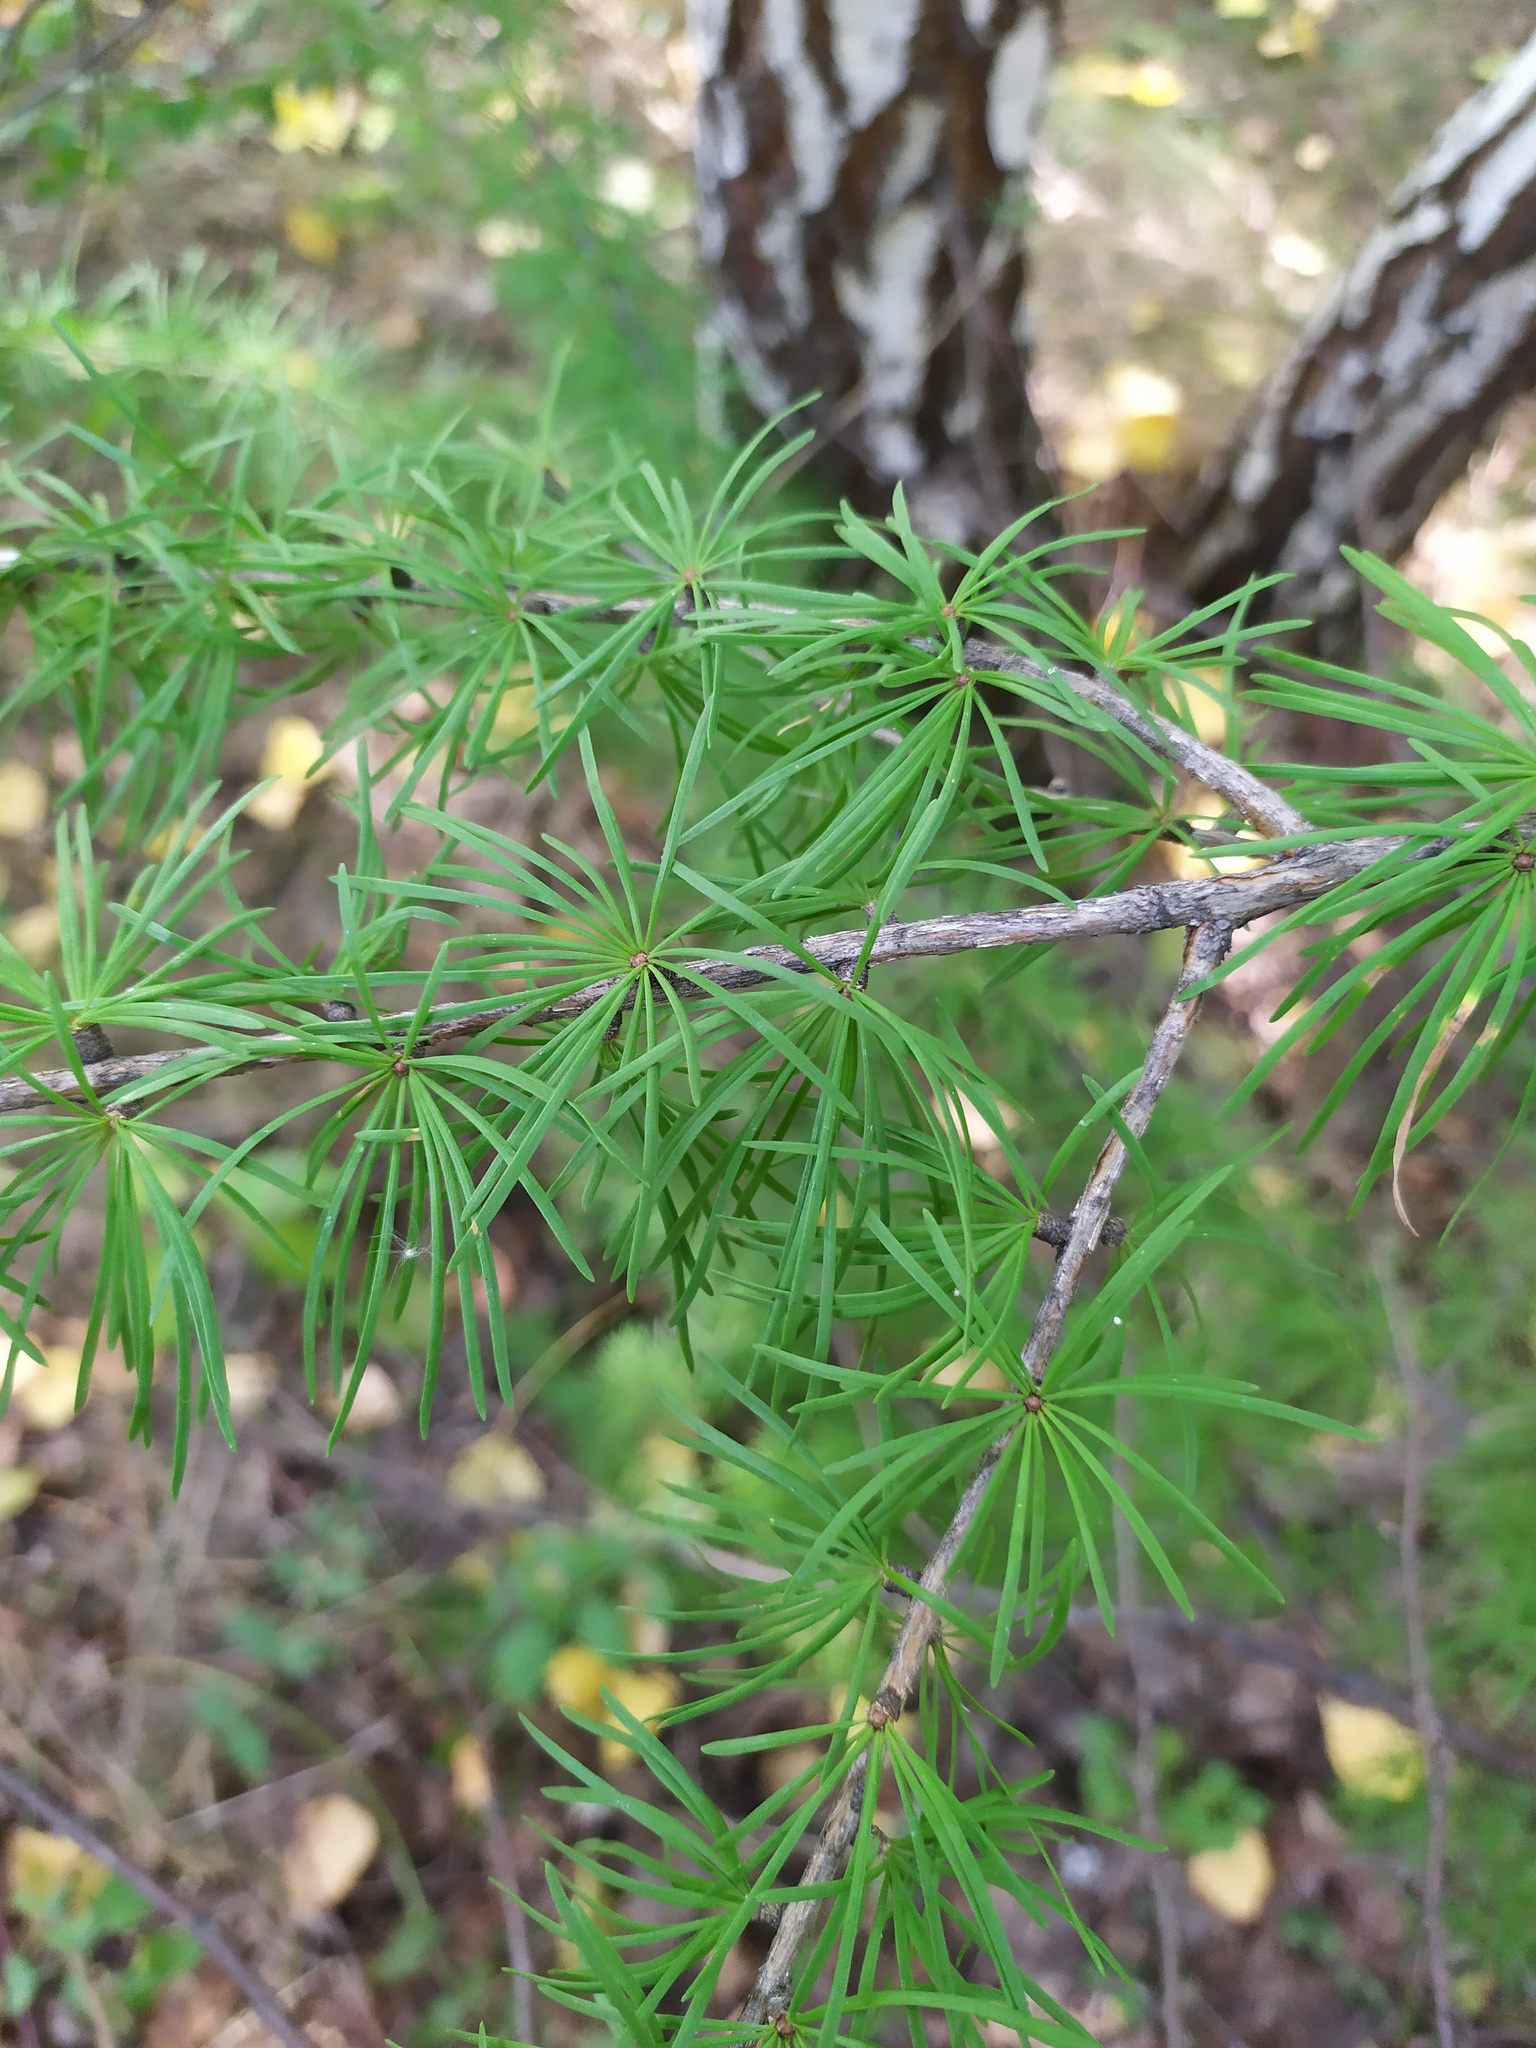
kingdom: Plantae
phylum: Tracheophyta
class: Pinopsida
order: Pinales
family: Pinaceae
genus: Larix
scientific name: Larix
